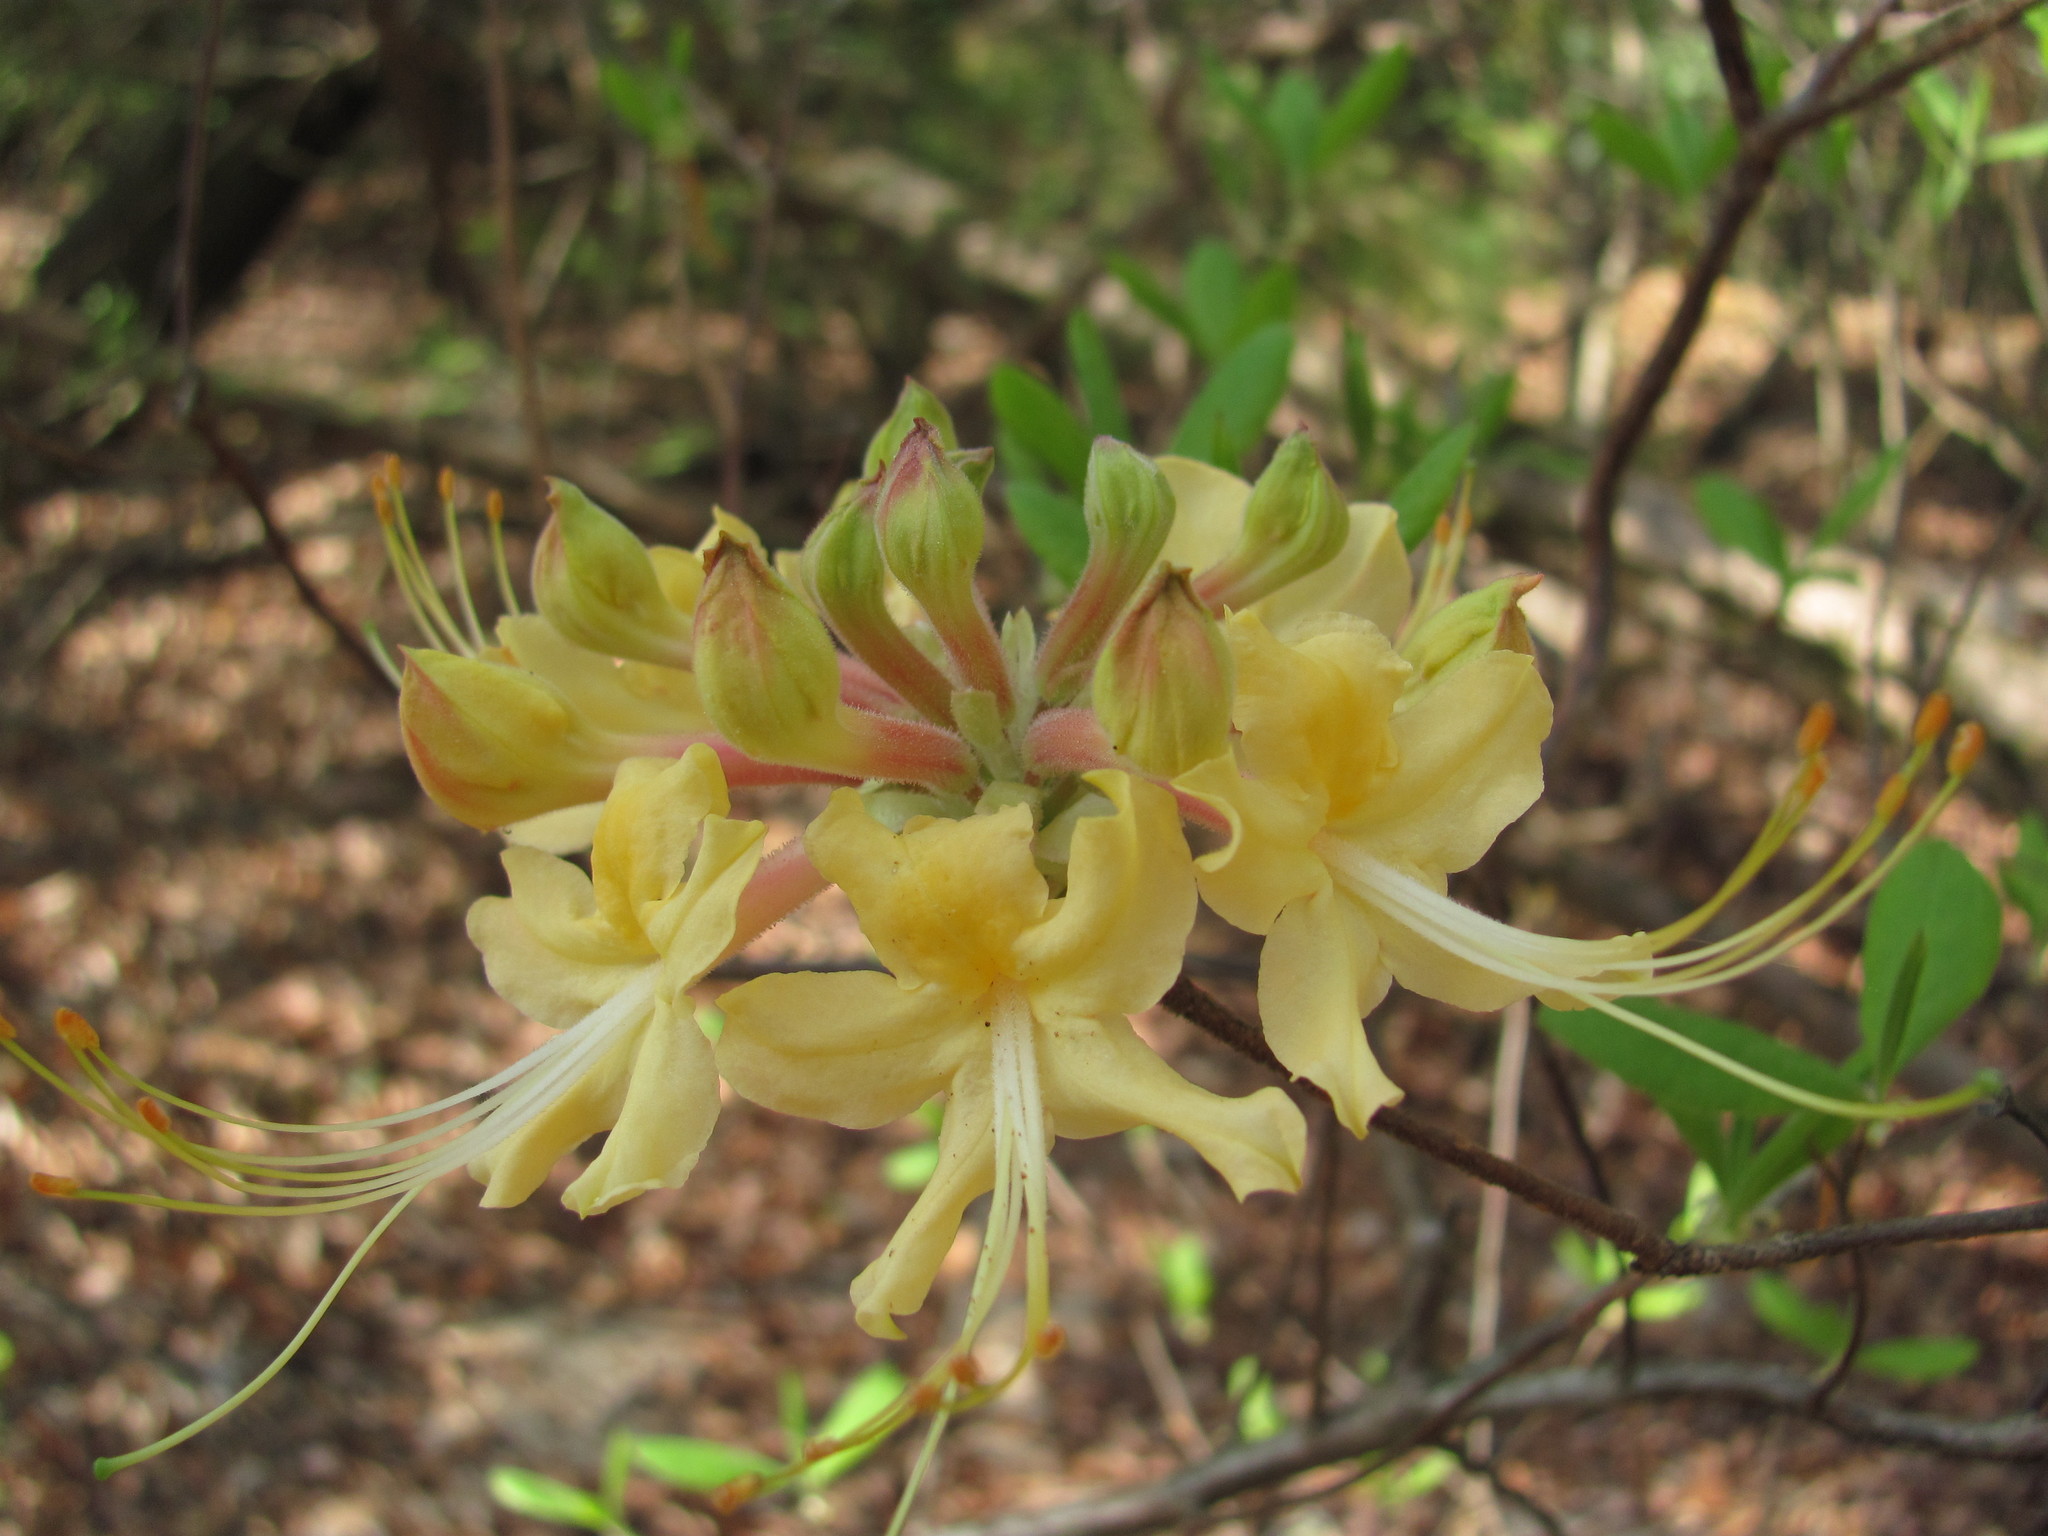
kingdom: Plantae
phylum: Tracheophyta
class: Magnoliopsida
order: Ericales
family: Ericaceae
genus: Rhododendron
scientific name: Rhododendron austrinum
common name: Florida azalea
